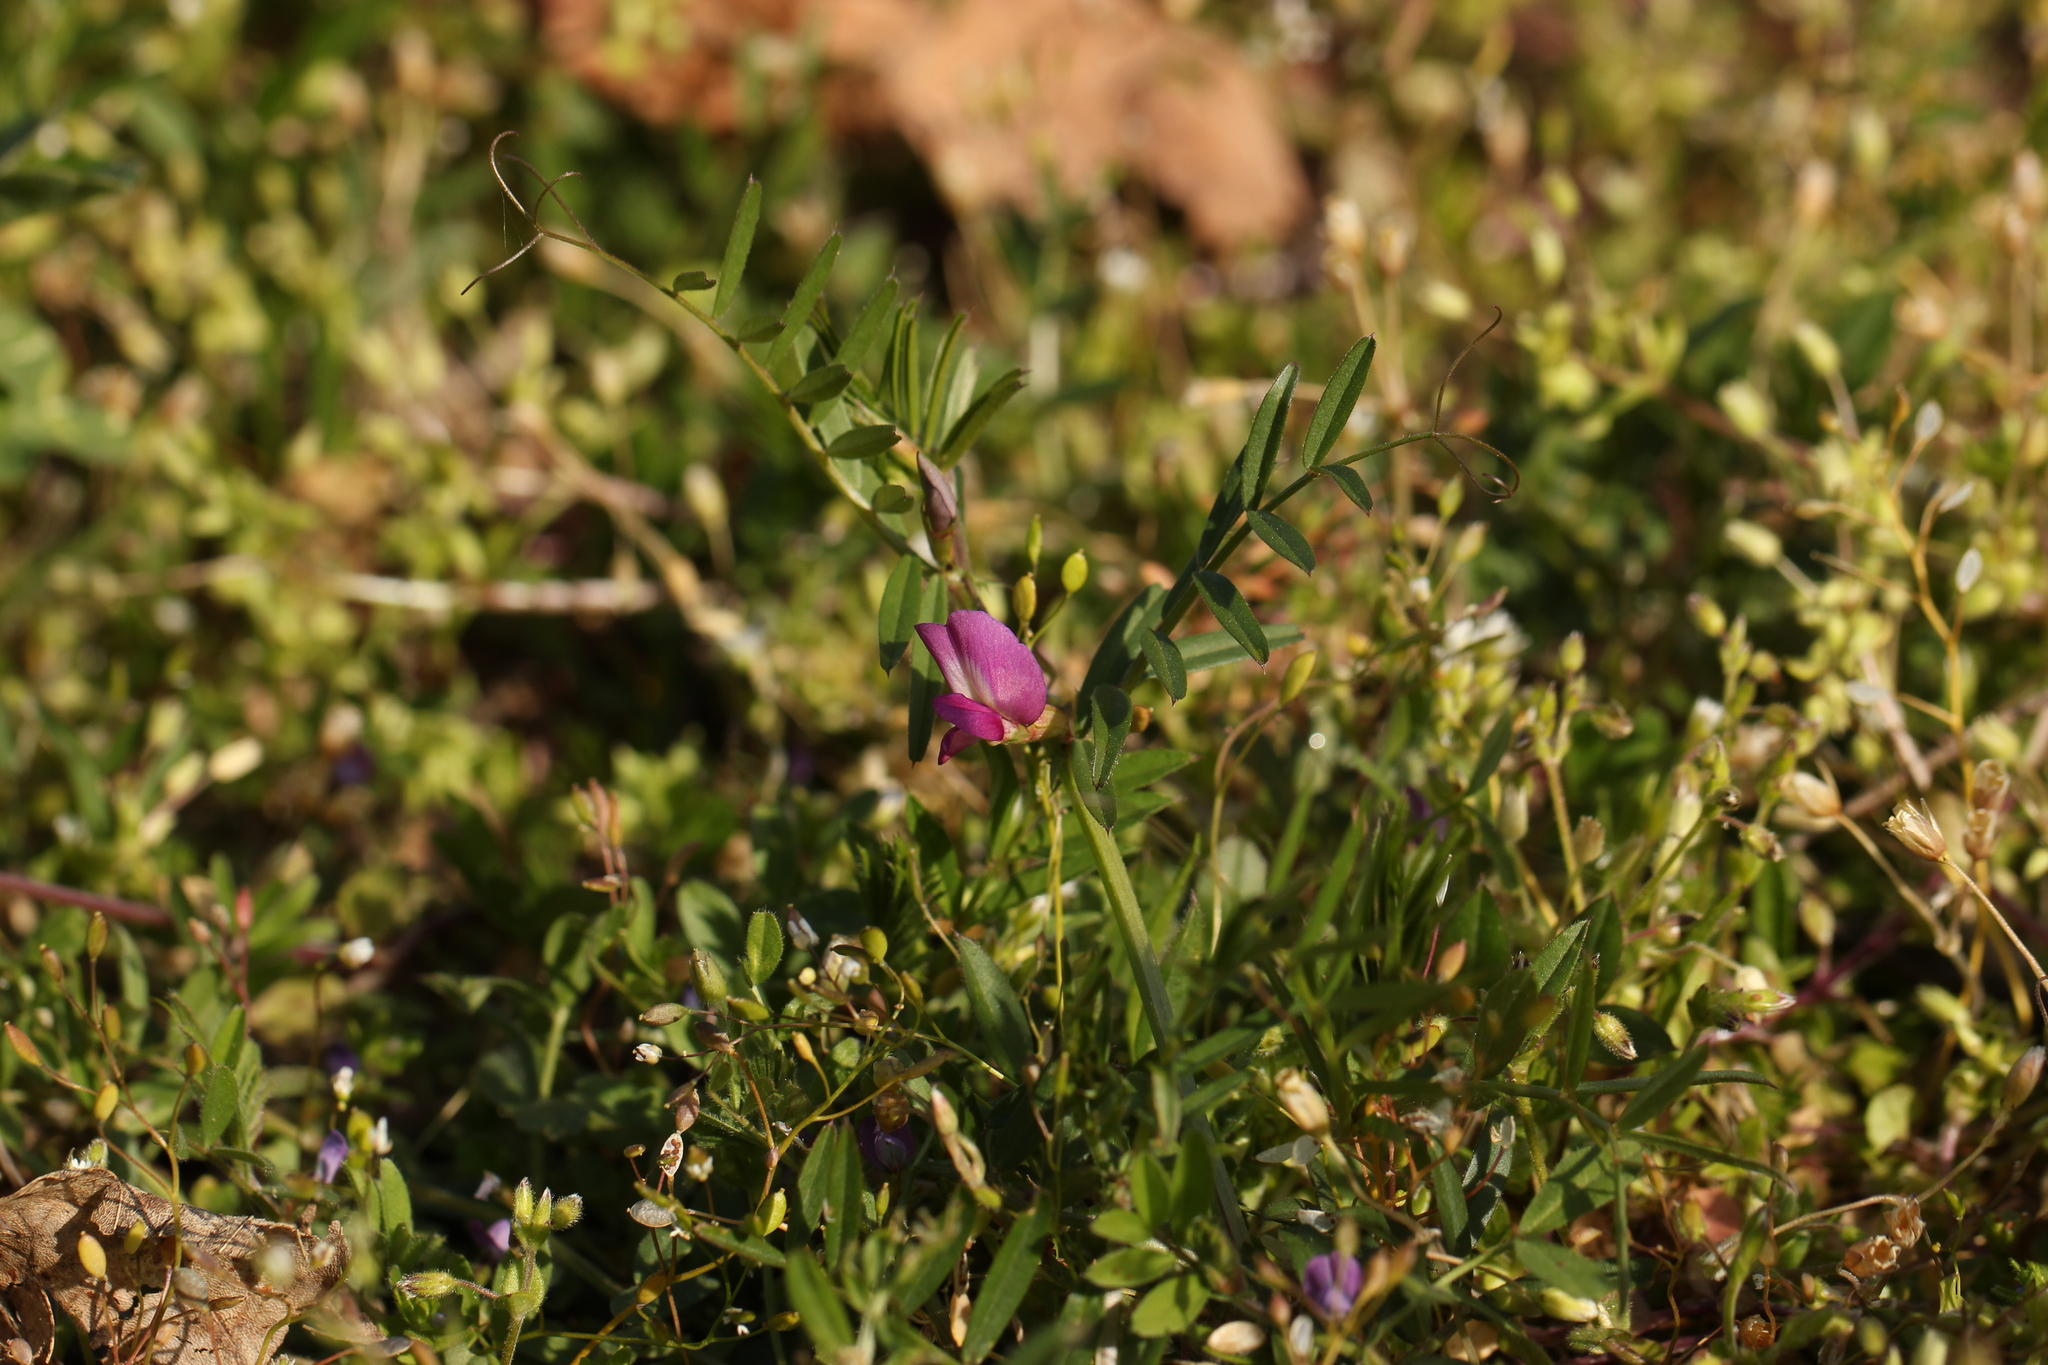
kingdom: Plantae
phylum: Tracheophyta
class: Magnoliopsida
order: Fabales
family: Fabaceae
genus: Vicia
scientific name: Vicia sativa
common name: Garden vetch
